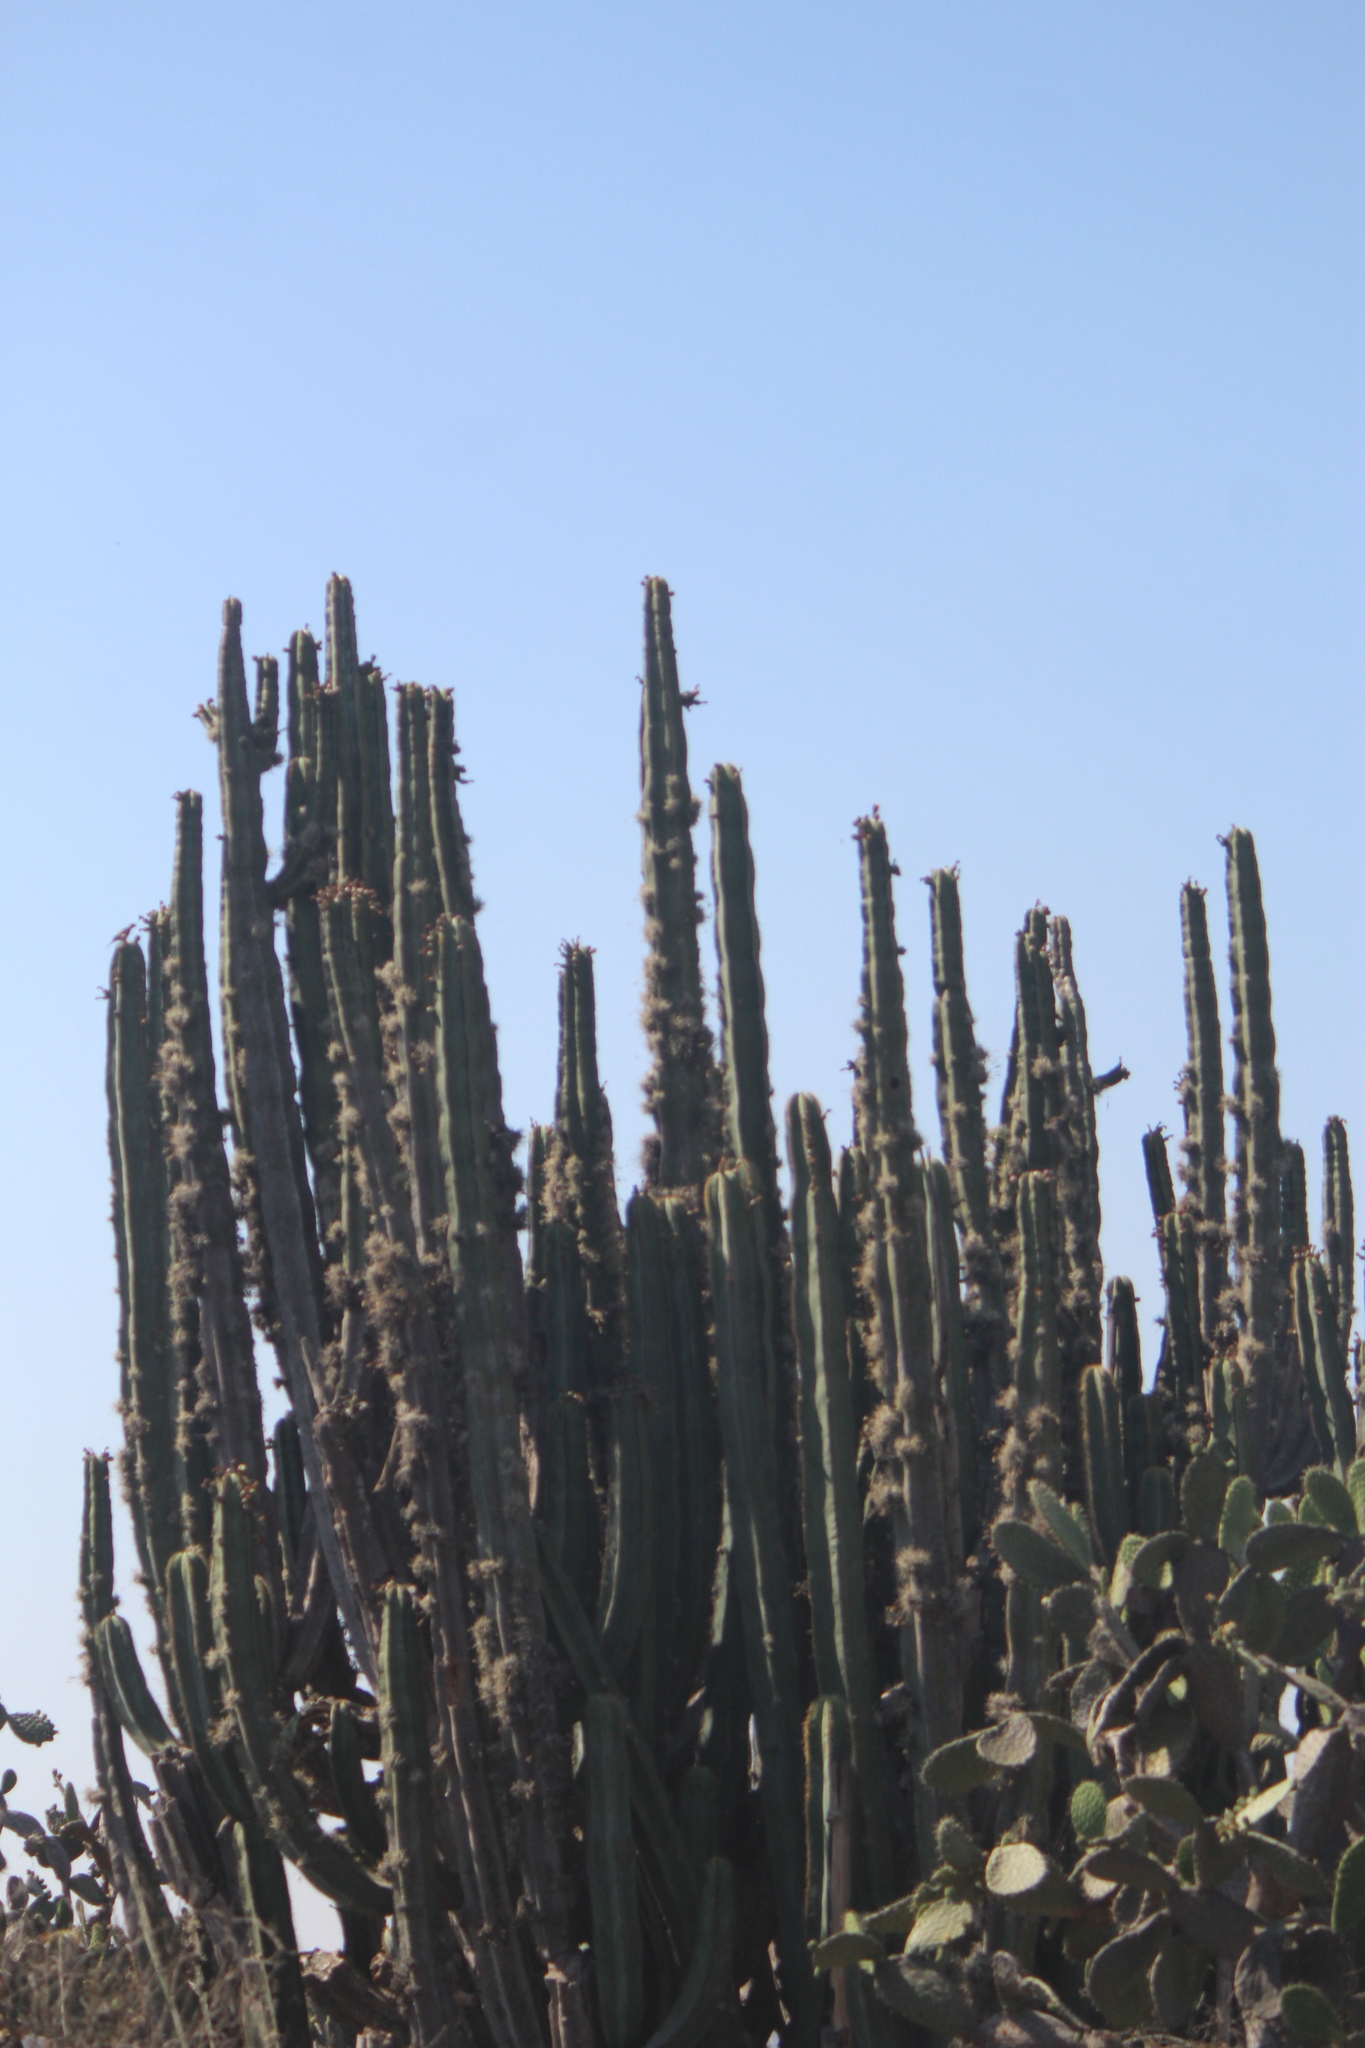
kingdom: Plantae
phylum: Tracheophyta
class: Magnoliopsida
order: Caryophyllales
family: Cactaceae
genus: Stenocereus
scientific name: Stenocereus dumortieri
